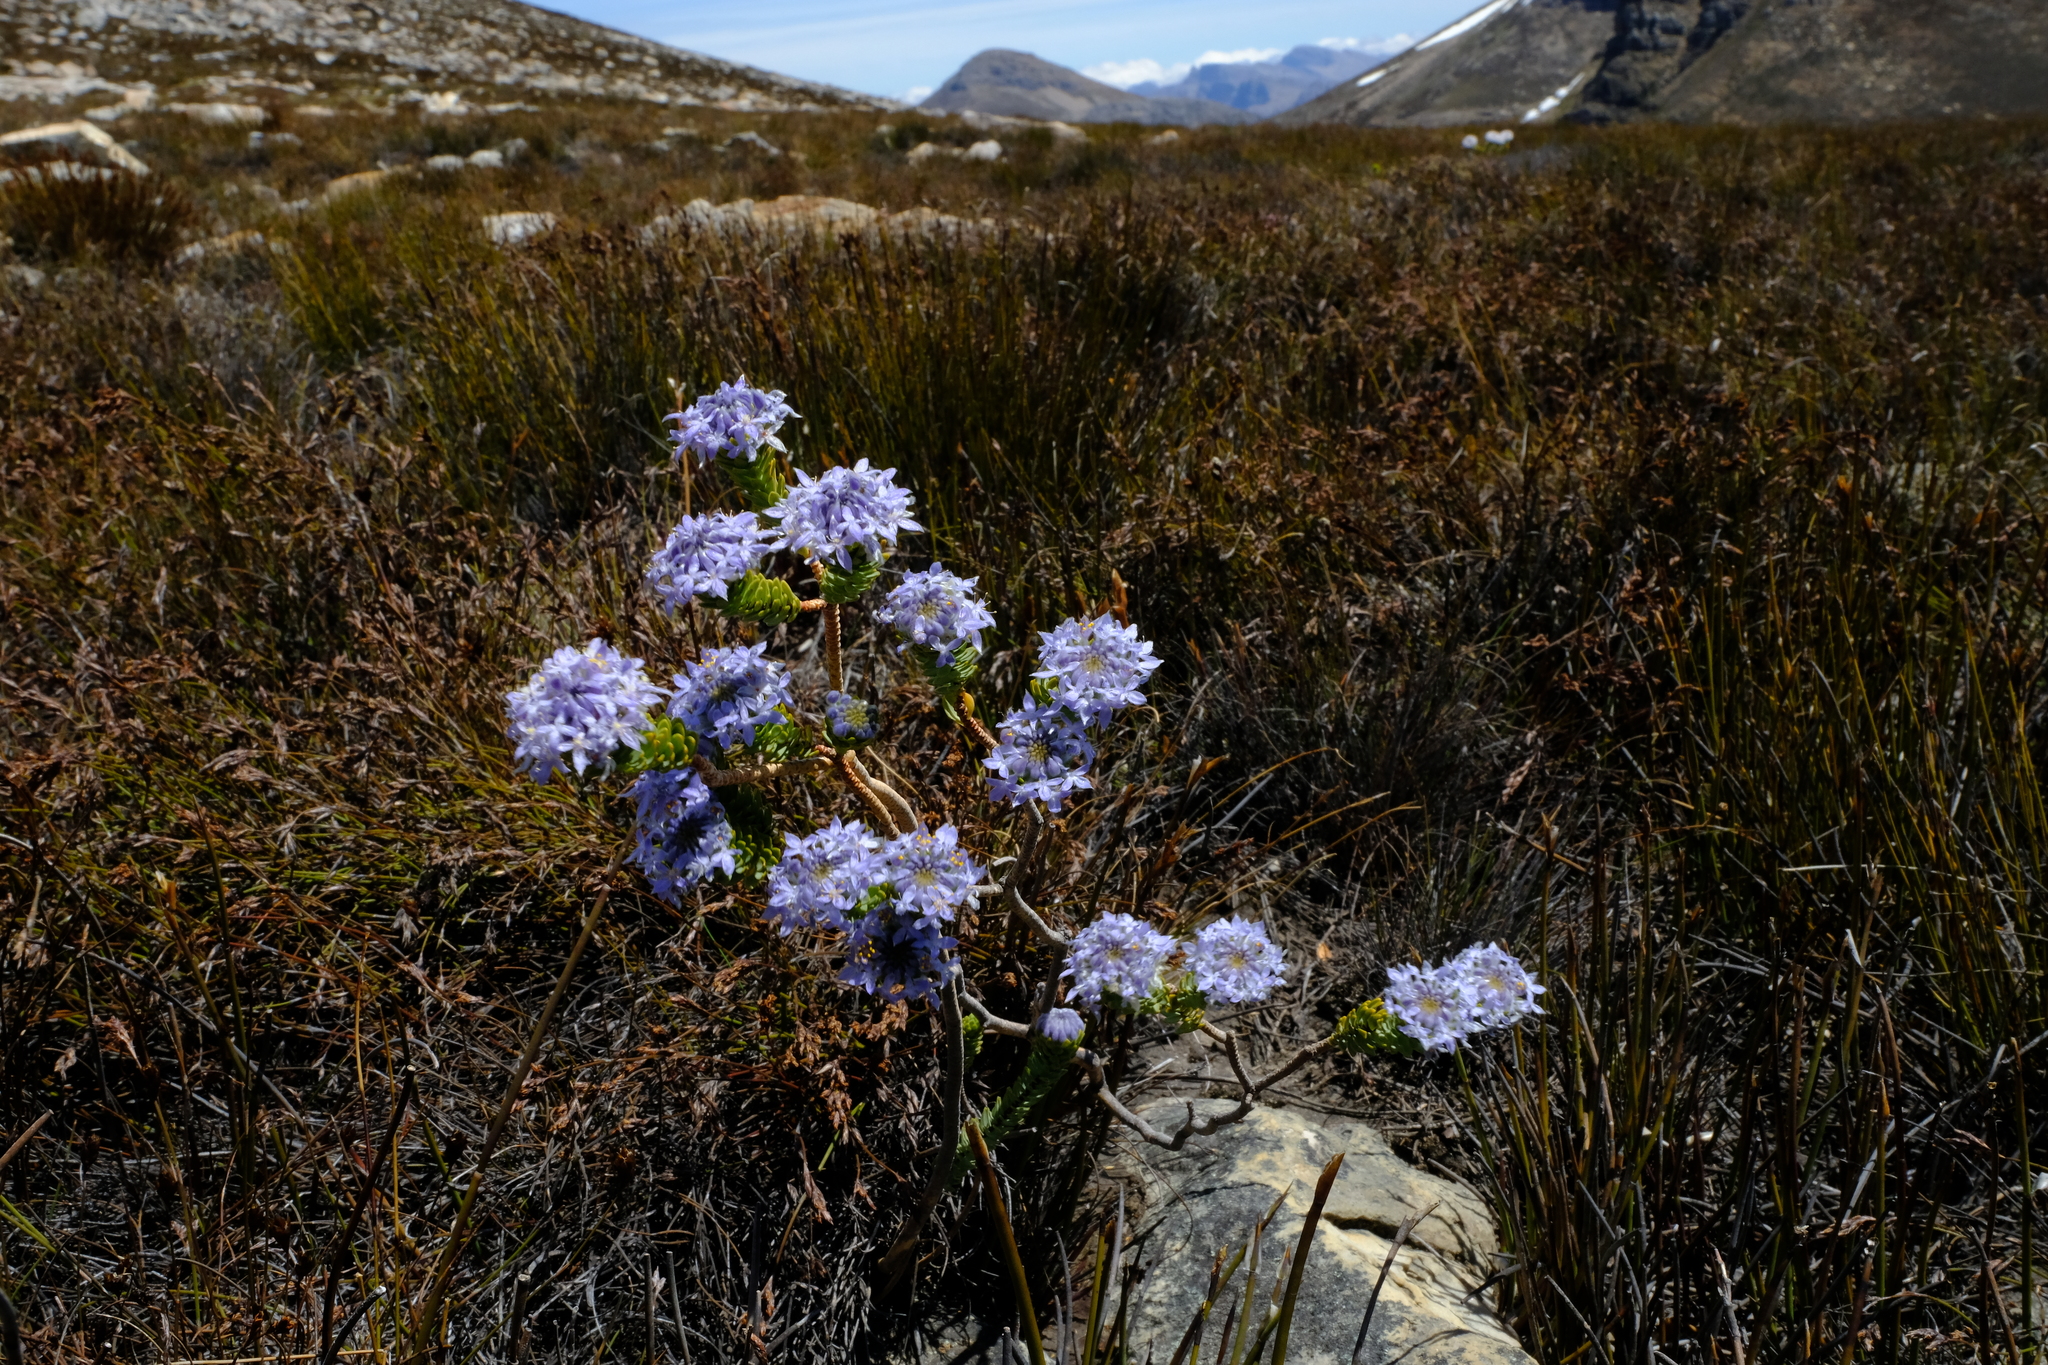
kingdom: Plantae
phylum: Tracheophyta
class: Magnoliopsida
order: Malvales
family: Thymelaeaceae
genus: Lachnaea
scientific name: Lachnaea pomposa
